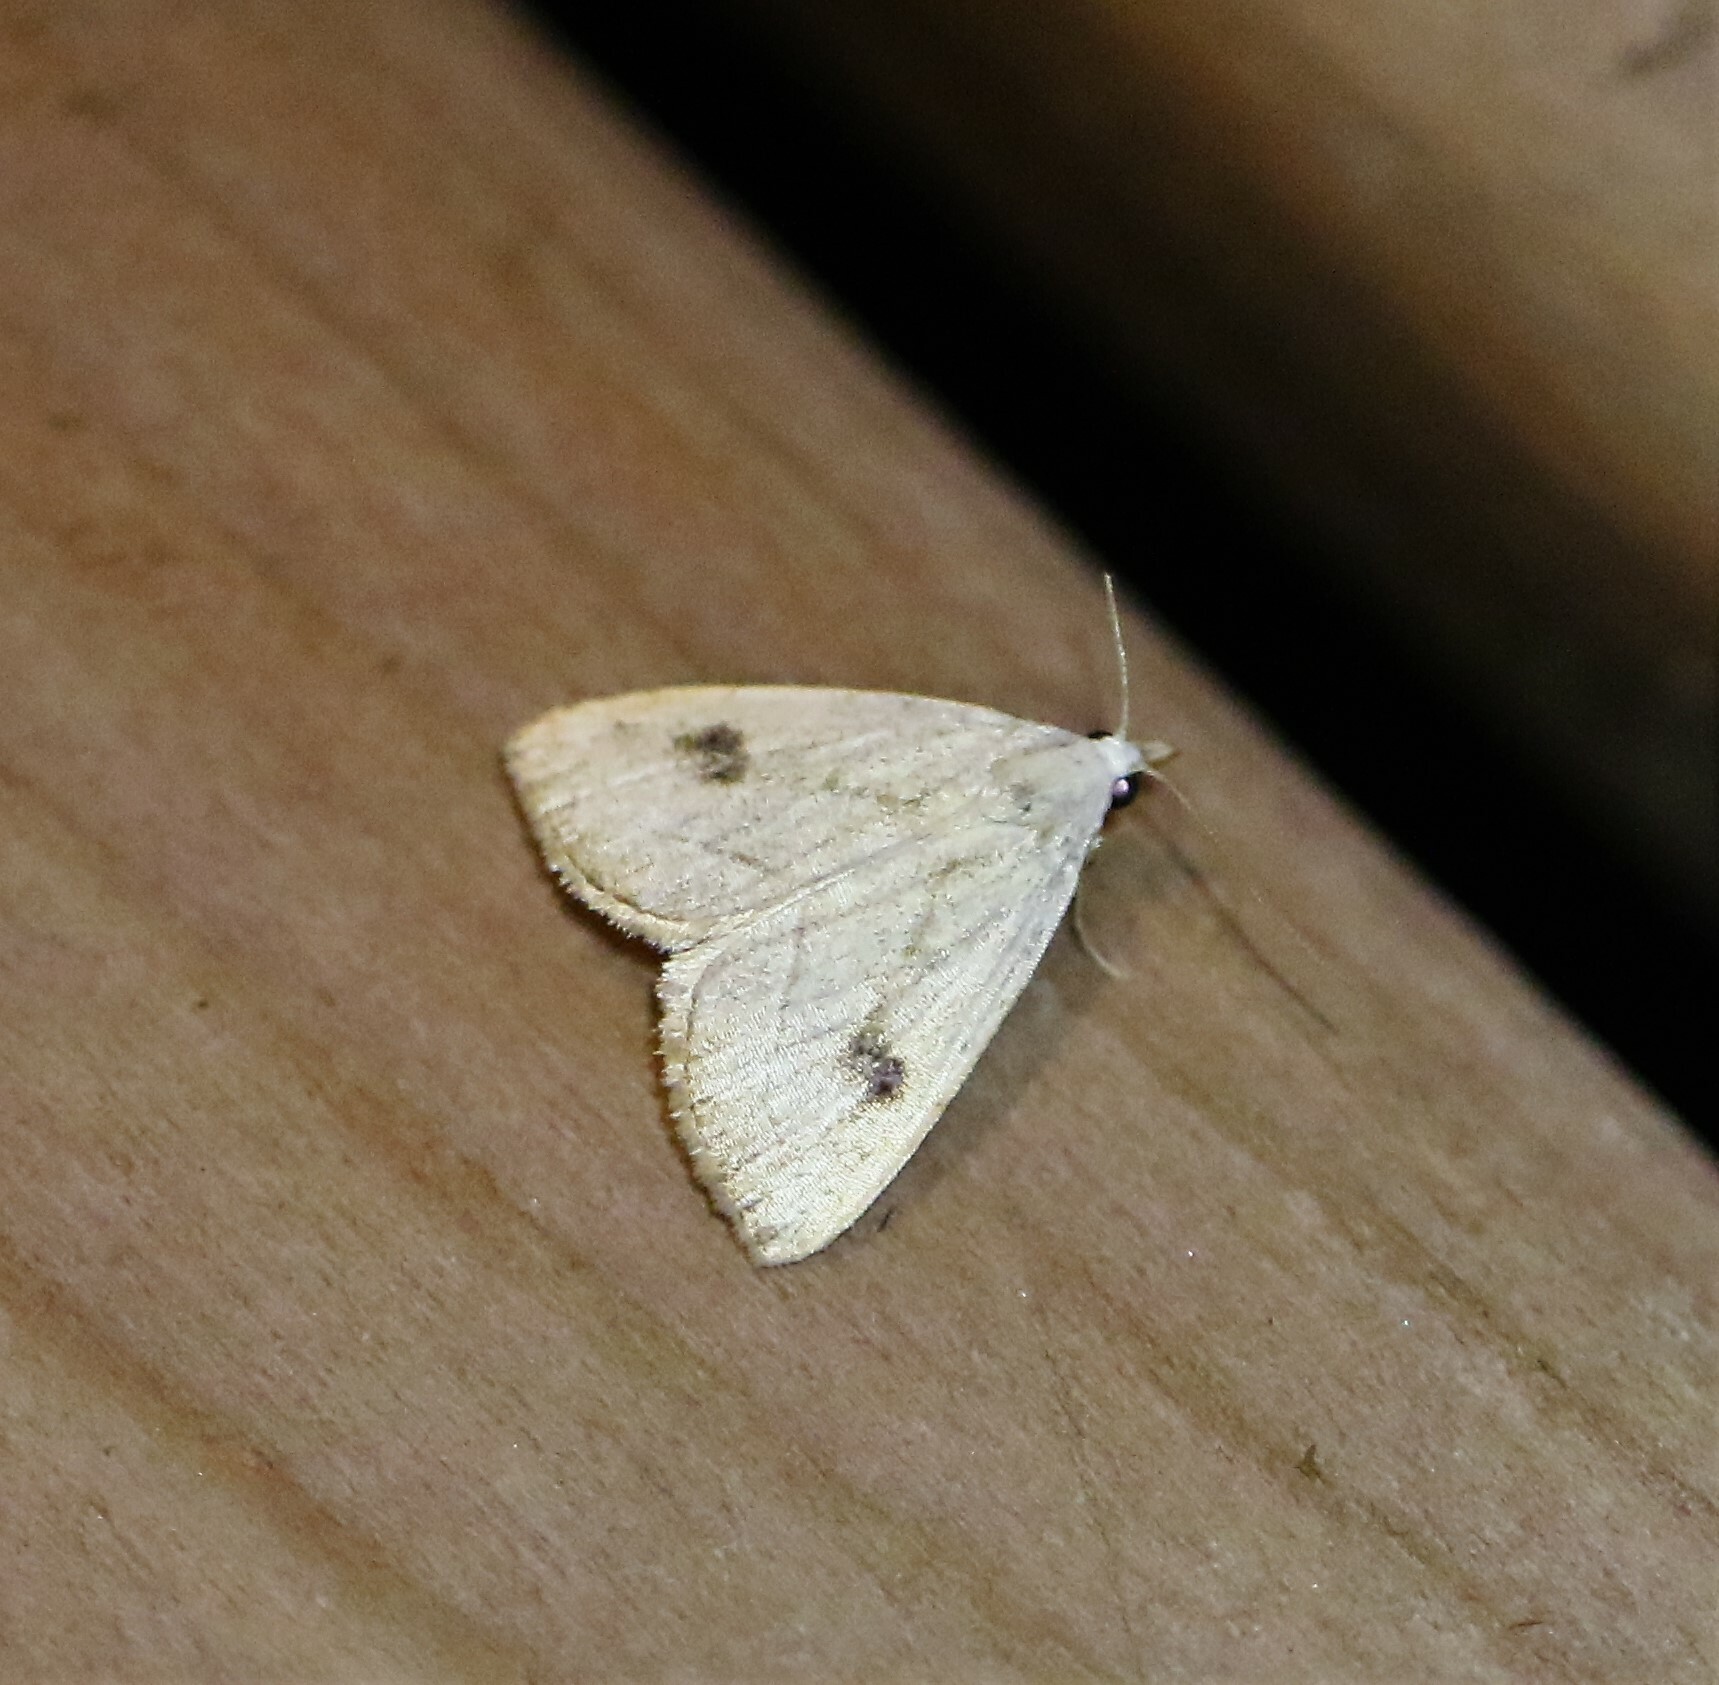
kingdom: Animalia
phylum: Arthropoda
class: Insecta
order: Lepidoptera
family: Erebidae
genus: Rivula
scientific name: Rivula propinqualis
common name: Spotted grass moth
